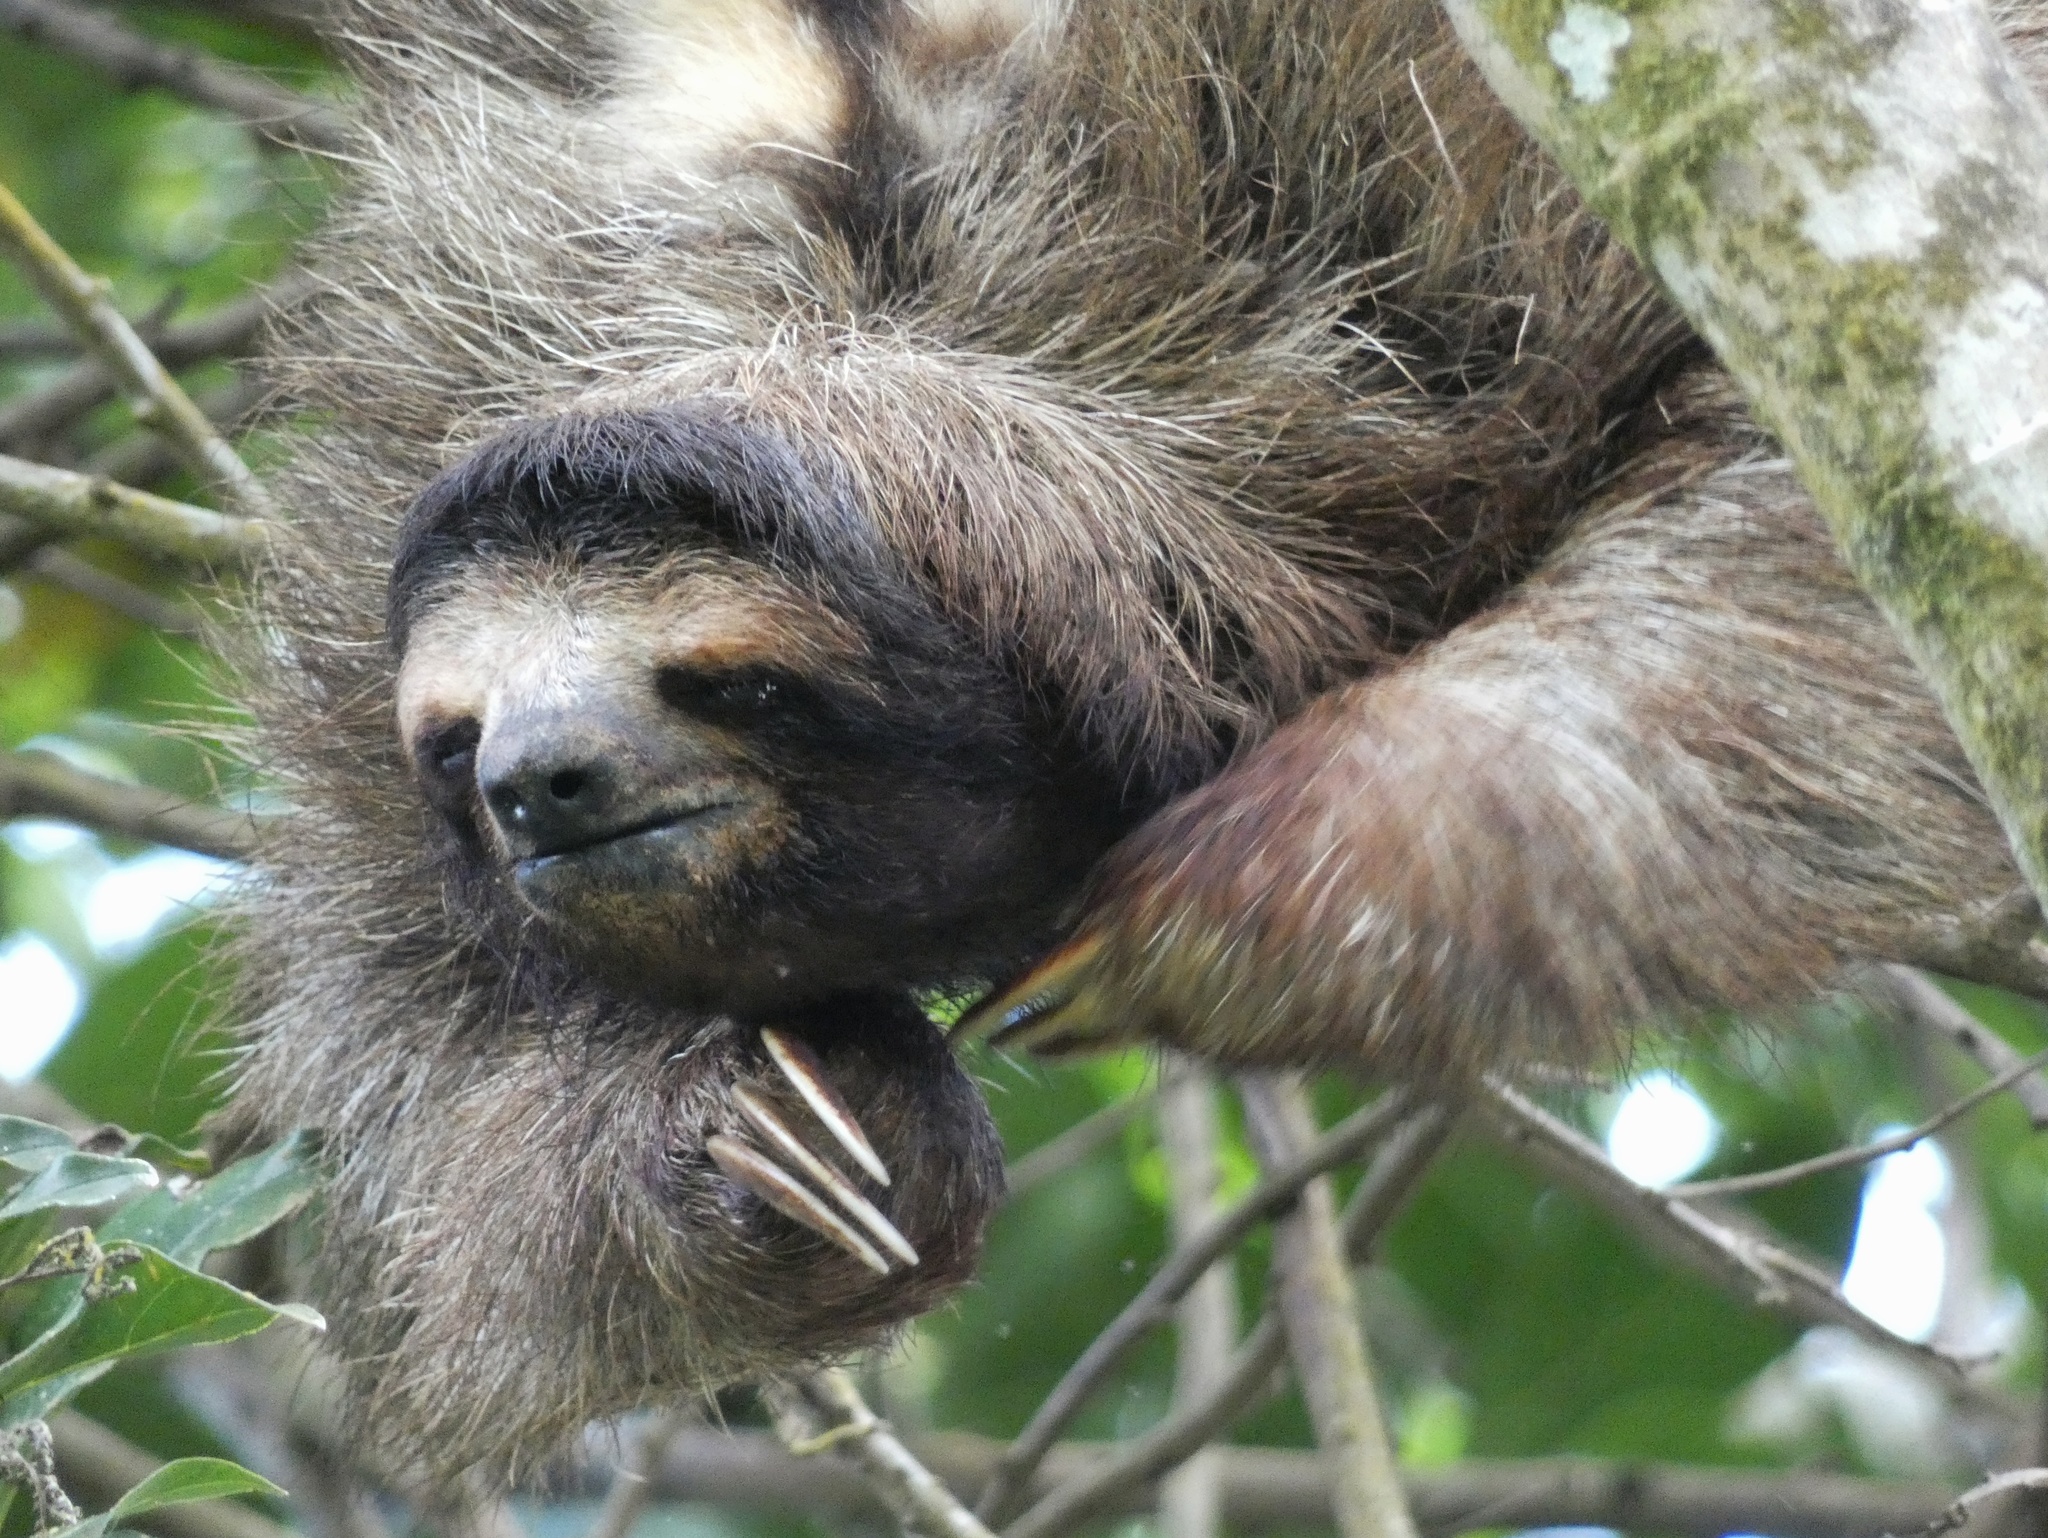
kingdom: Animalia
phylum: Chordata
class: Mammalia
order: Pilosa
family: Bradypodidae
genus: Bradypus
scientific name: Bradypus variegatus
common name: Brown-throated three-toed sloth
